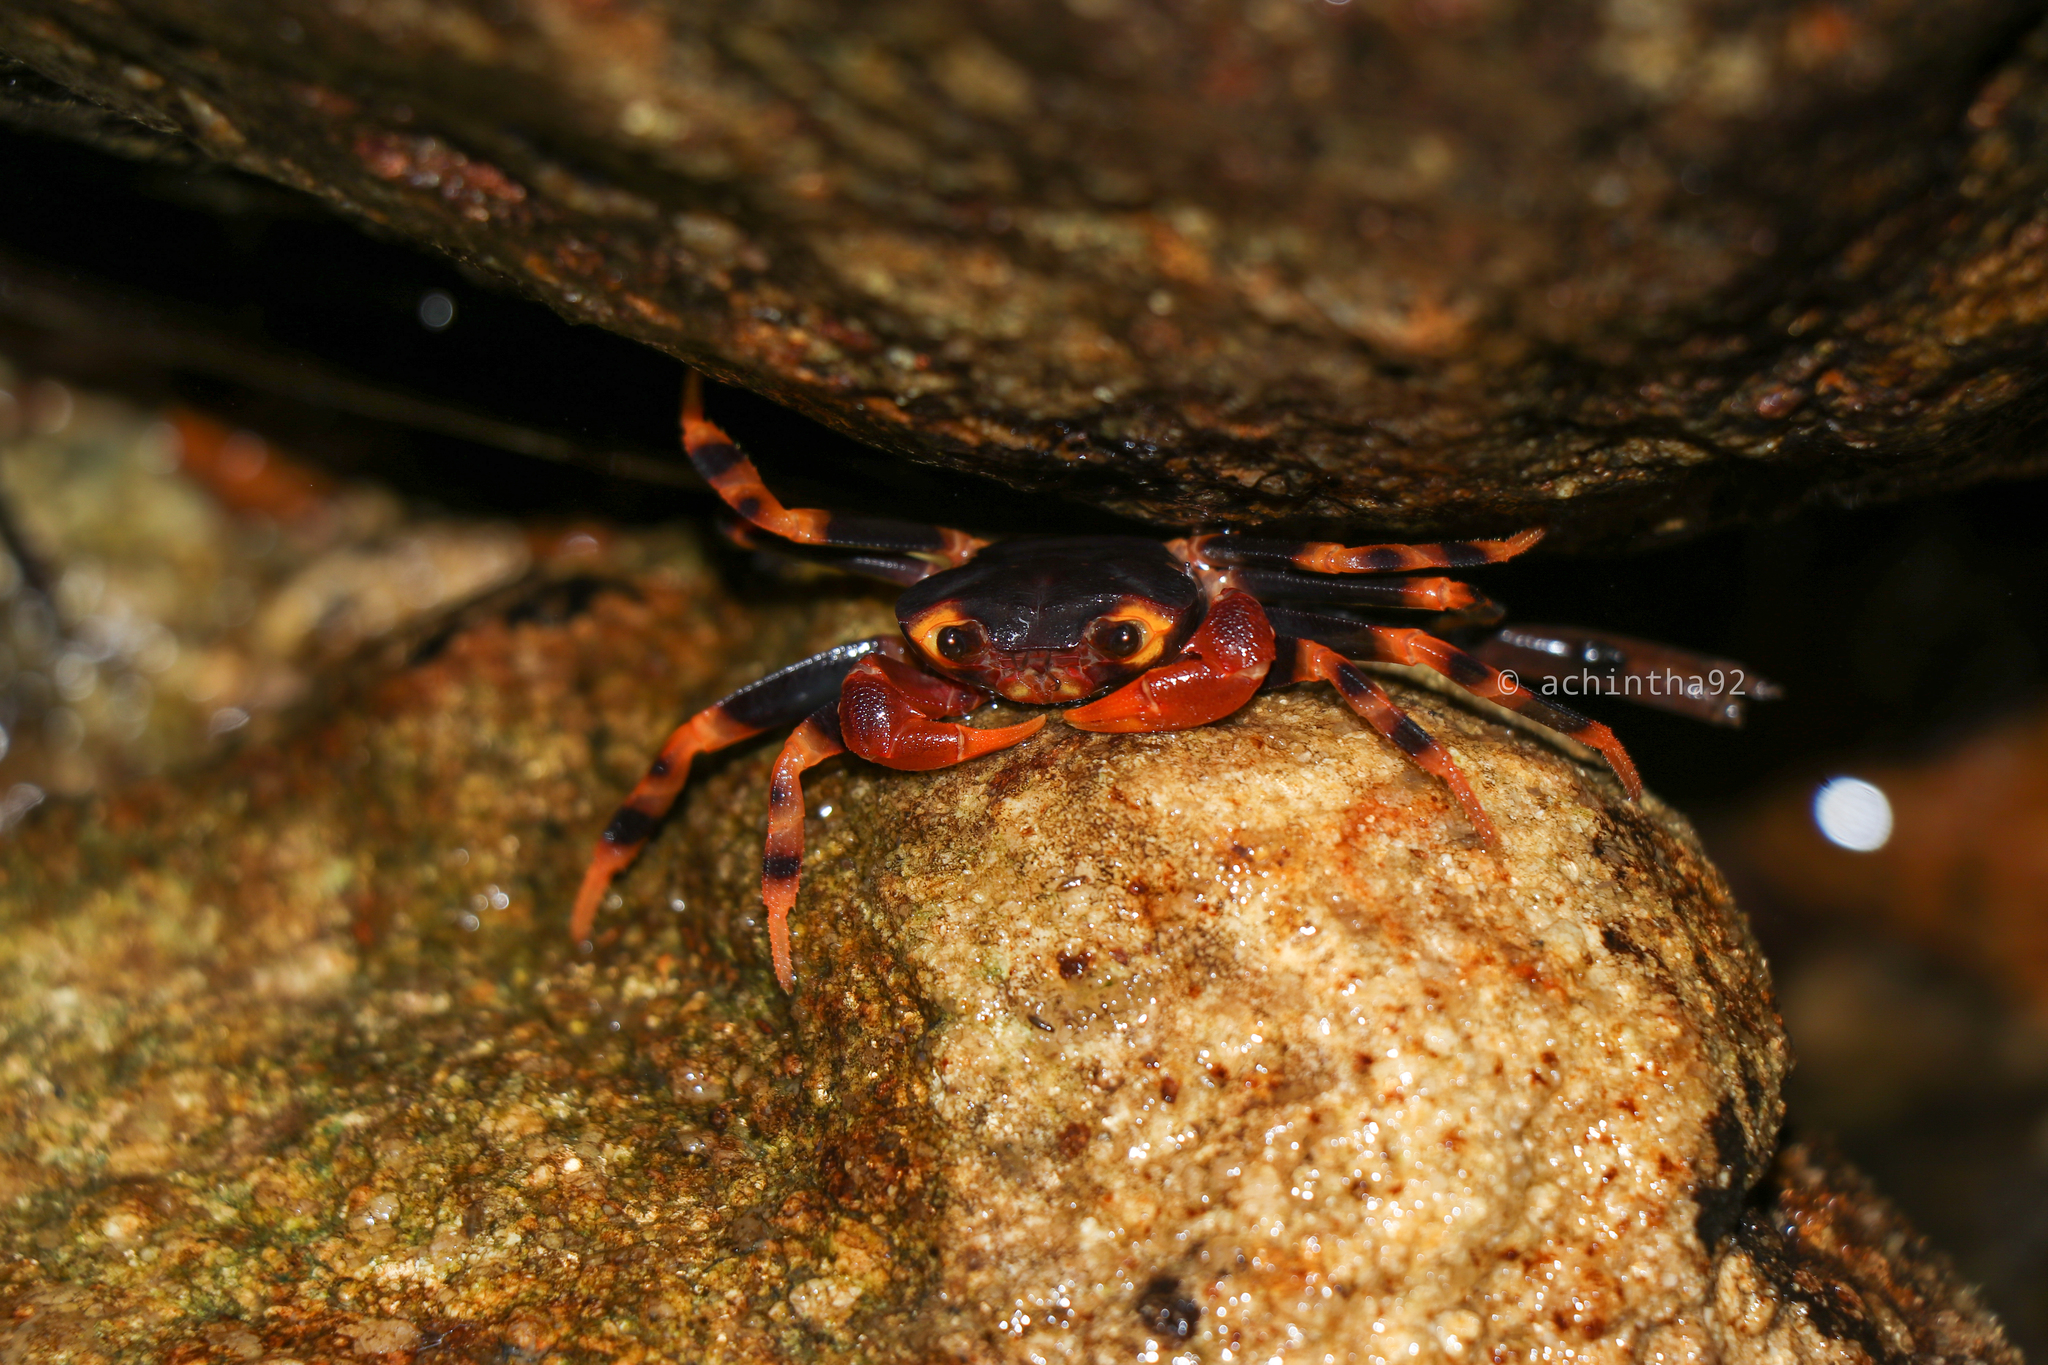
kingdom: Animalia
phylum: Arthropoda
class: Malacostraca
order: Decapoda
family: Gecarcinucidae
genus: Perbrinckia
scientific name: Perbrinckia scansor
